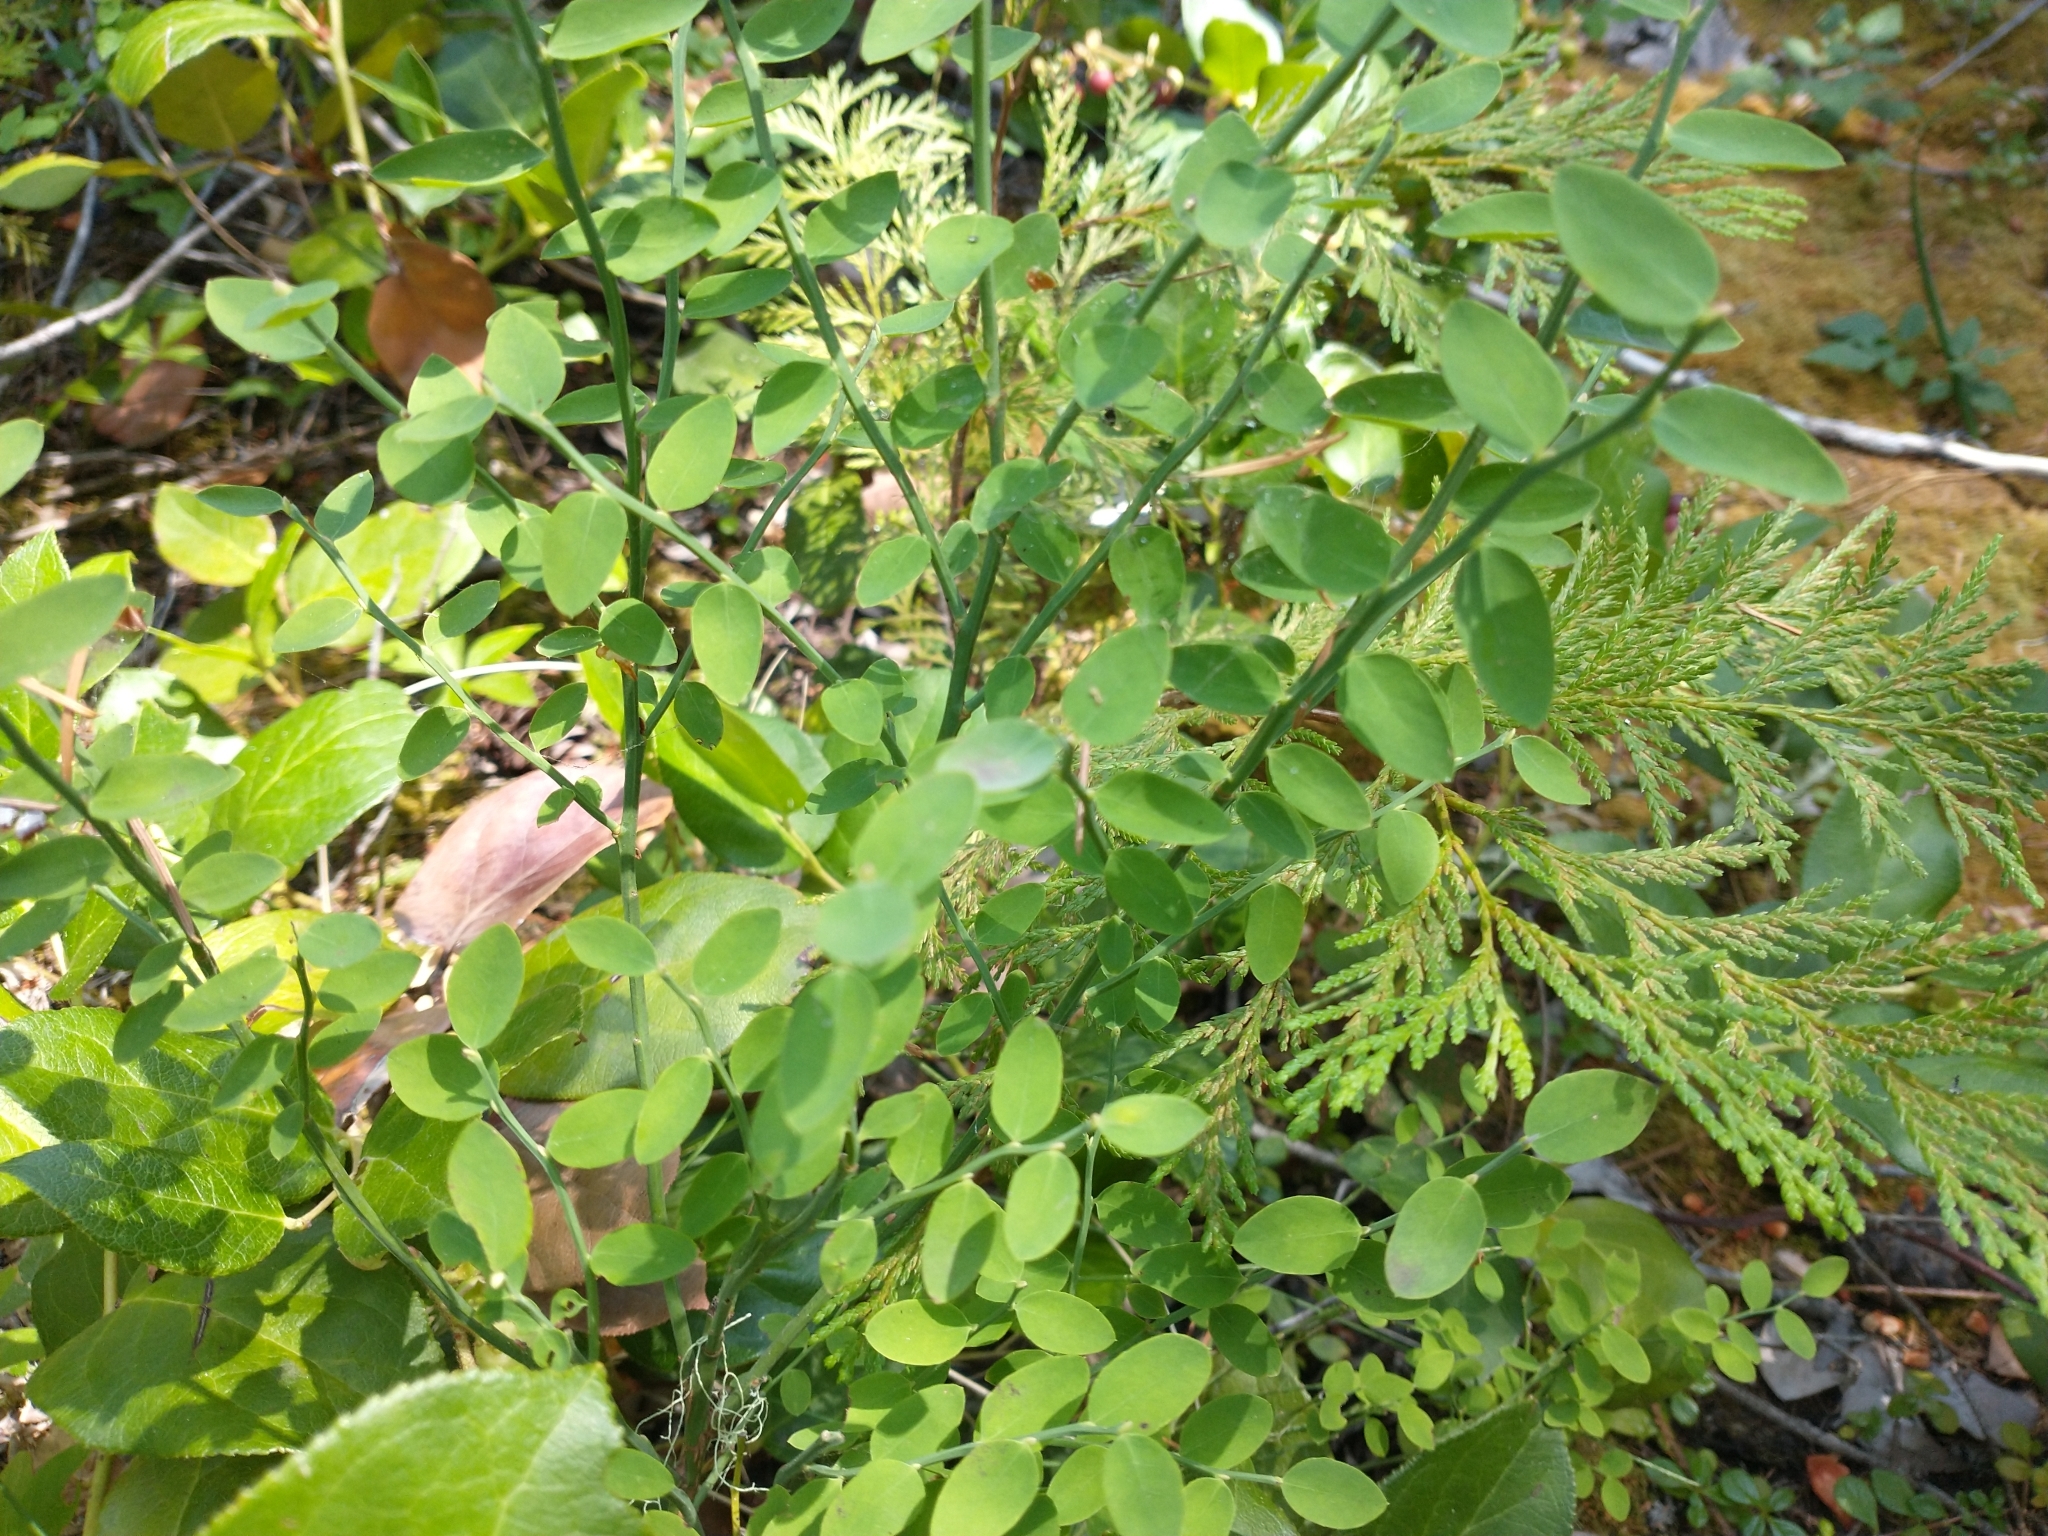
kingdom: Plantae
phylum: Tracheophyta
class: Magnoliopsida
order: Ericales
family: Ericaceae
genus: Vaccinium
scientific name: Vaccinium parvifolium
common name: Red-huckleberry
